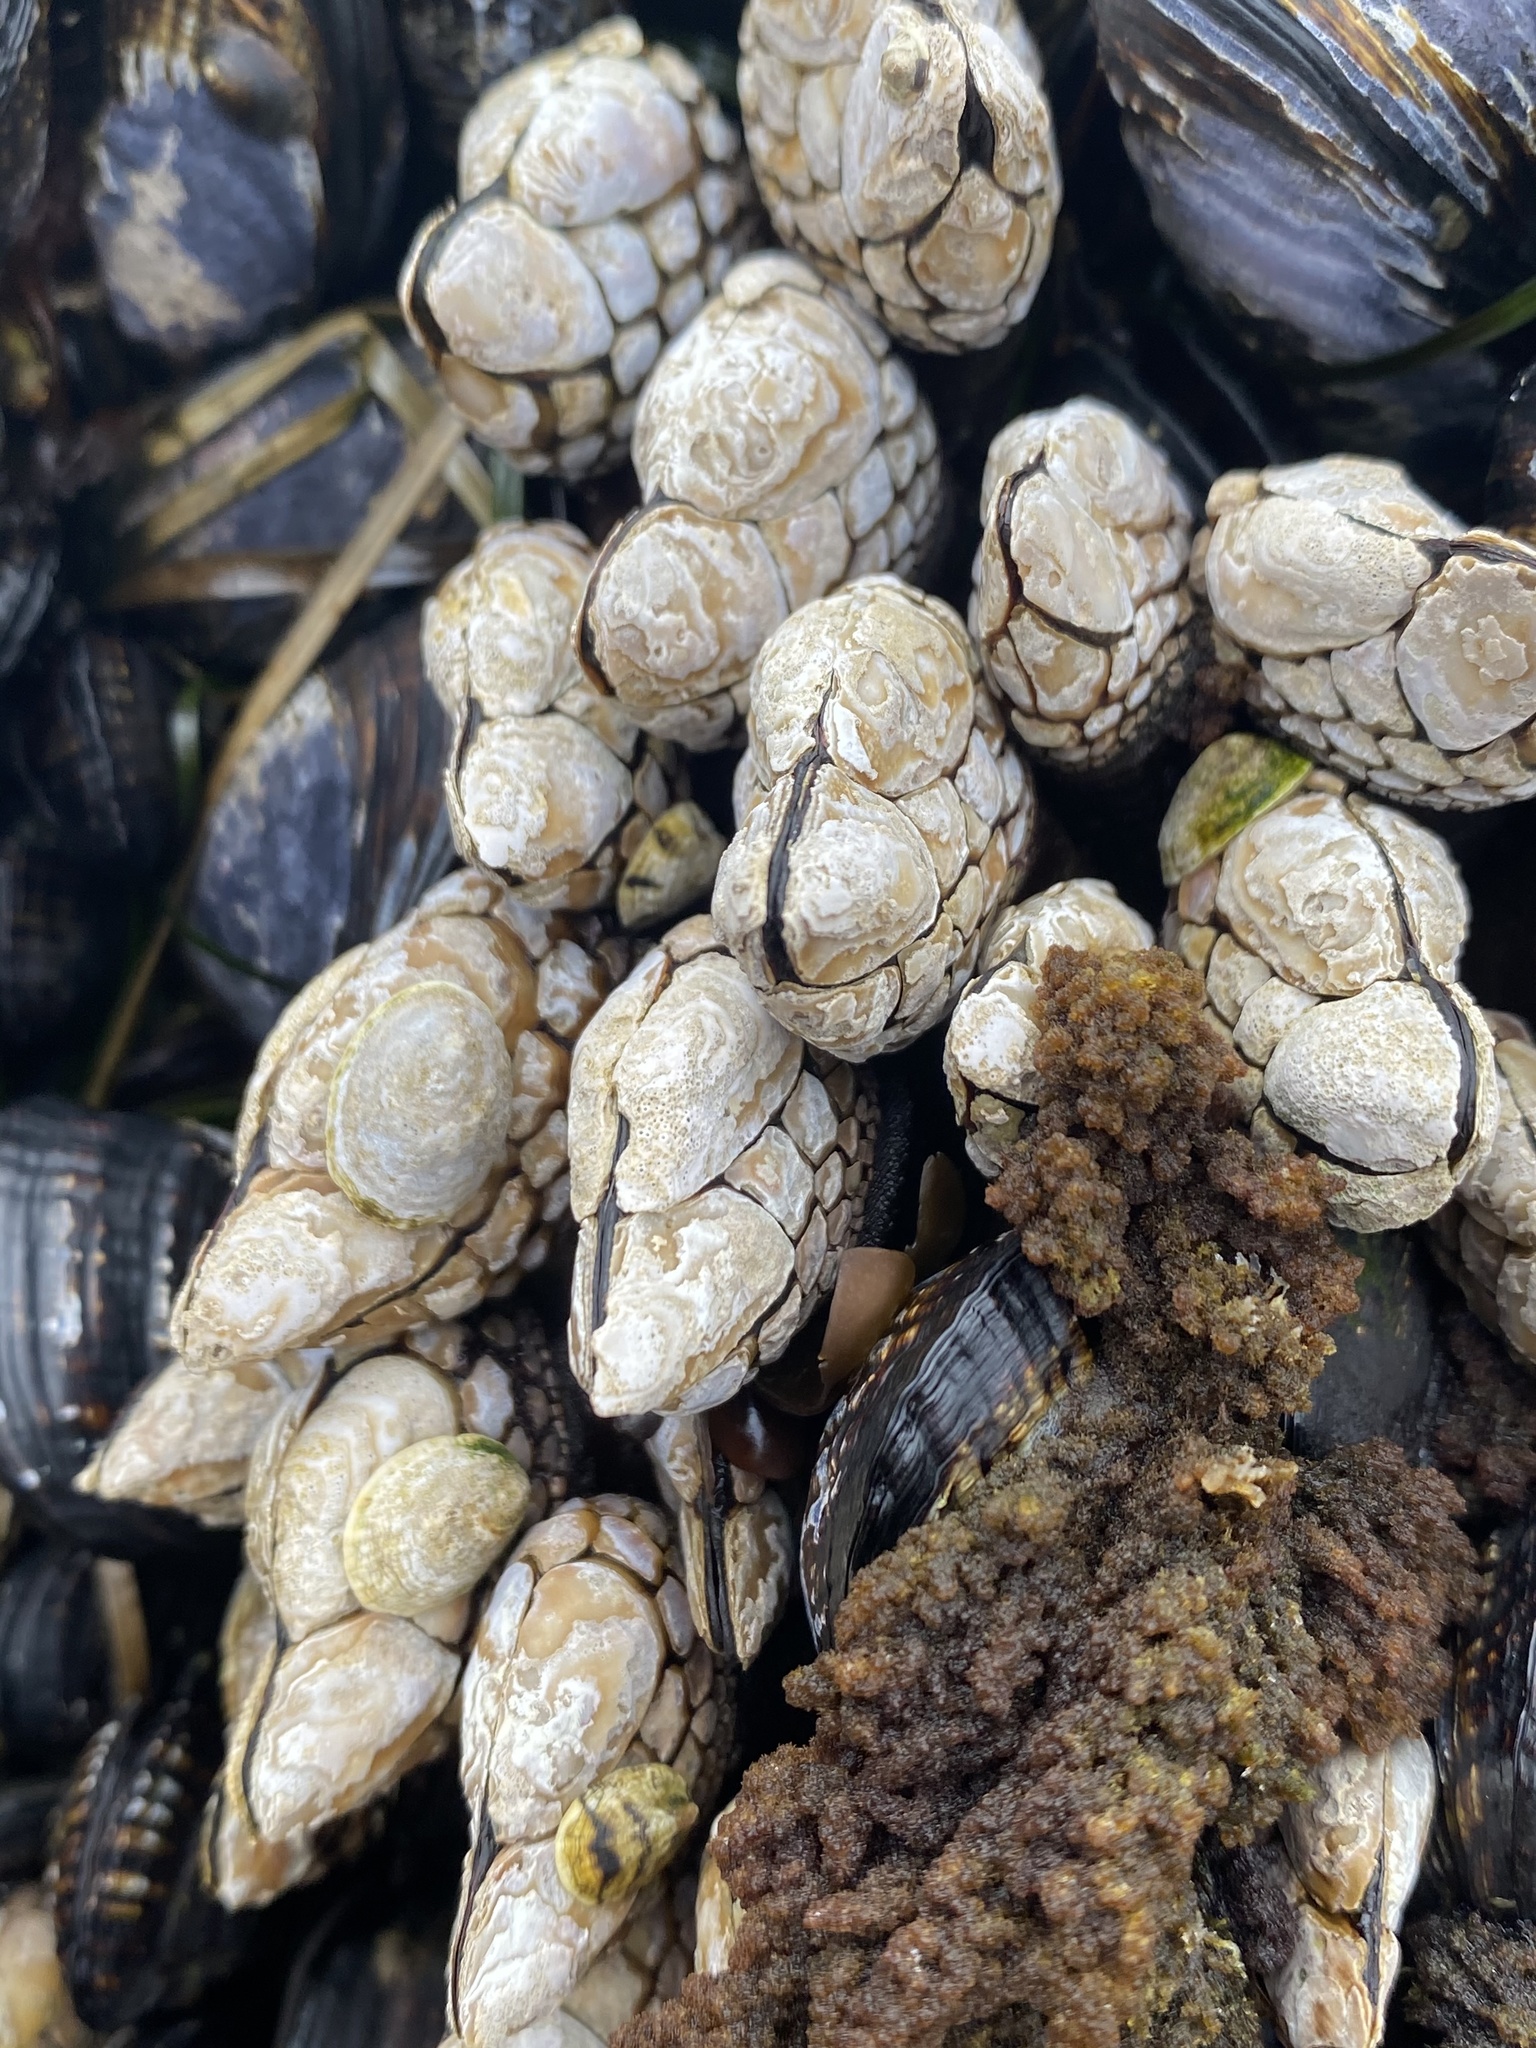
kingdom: Animalia
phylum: Arthropoda
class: Maxillopoda
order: Pedunculata
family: Pollicipedidae
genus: Pollicipes
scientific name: Pollicipes polymerus
